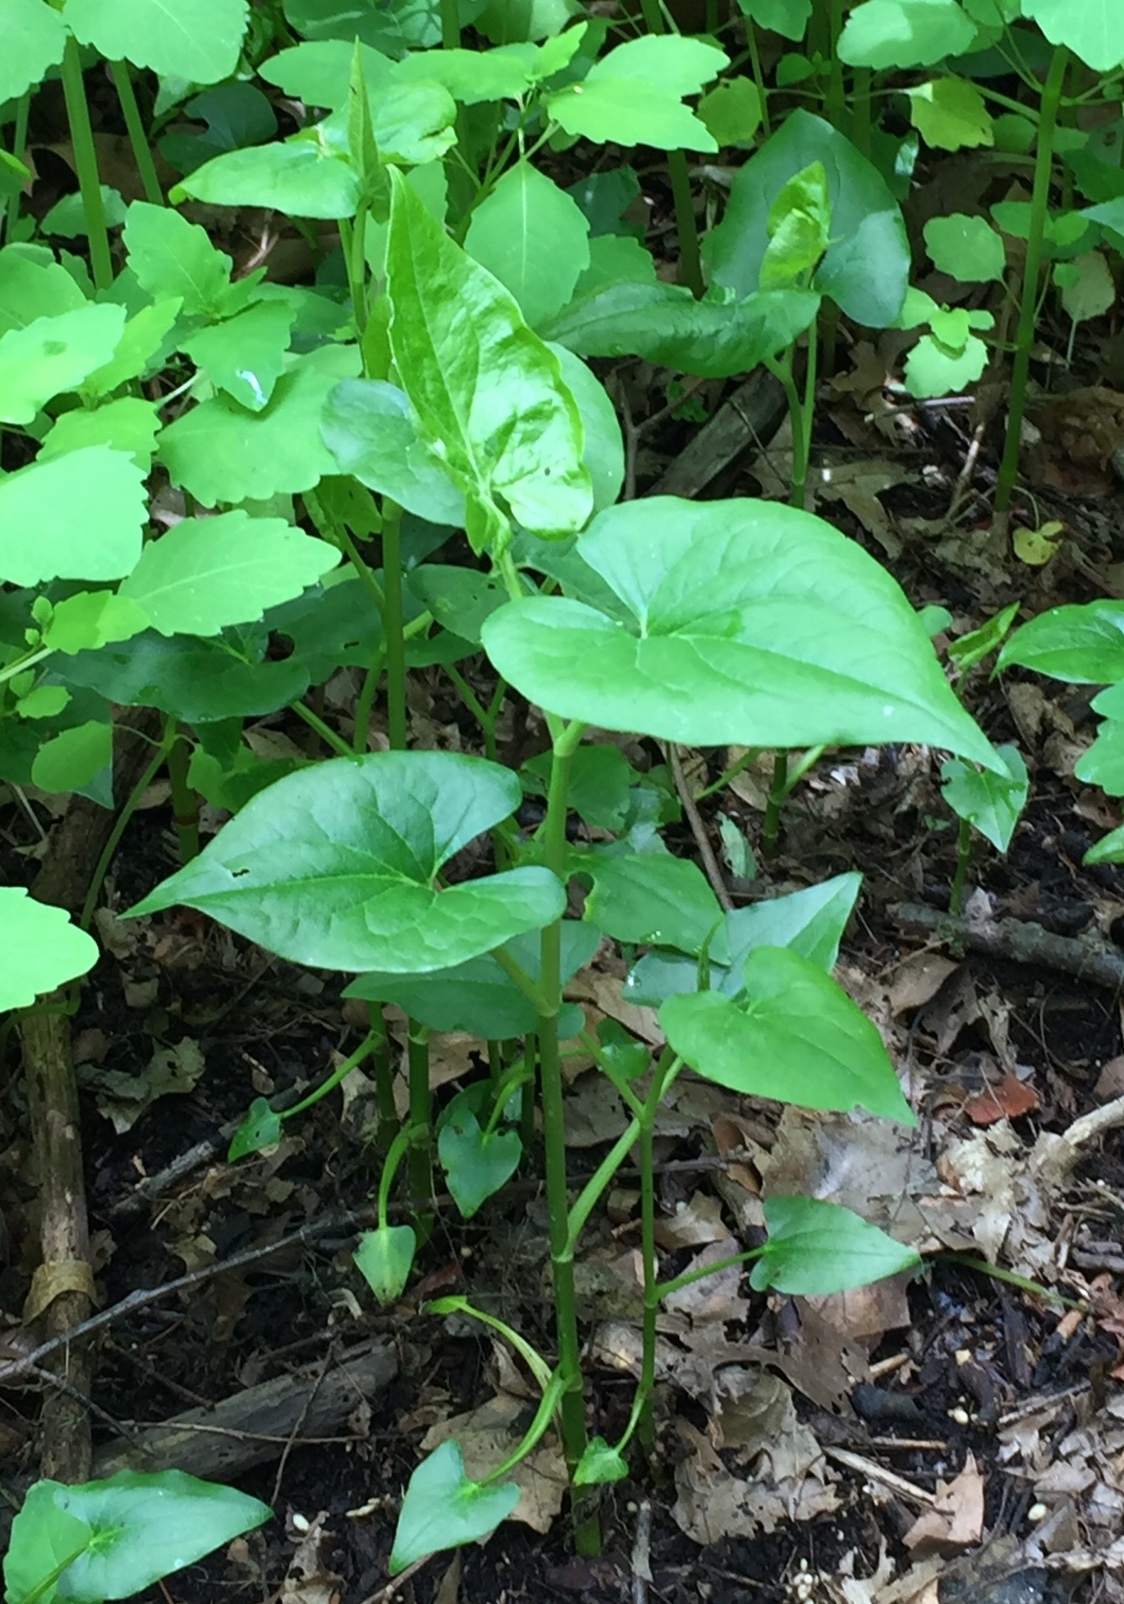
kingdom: Plantae
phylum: Tracheophyta
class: Magnoliopsida
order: Piperales
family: Saururaceae
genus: Saururus
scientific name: Saururus cernuus
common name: Lizard's-tail
